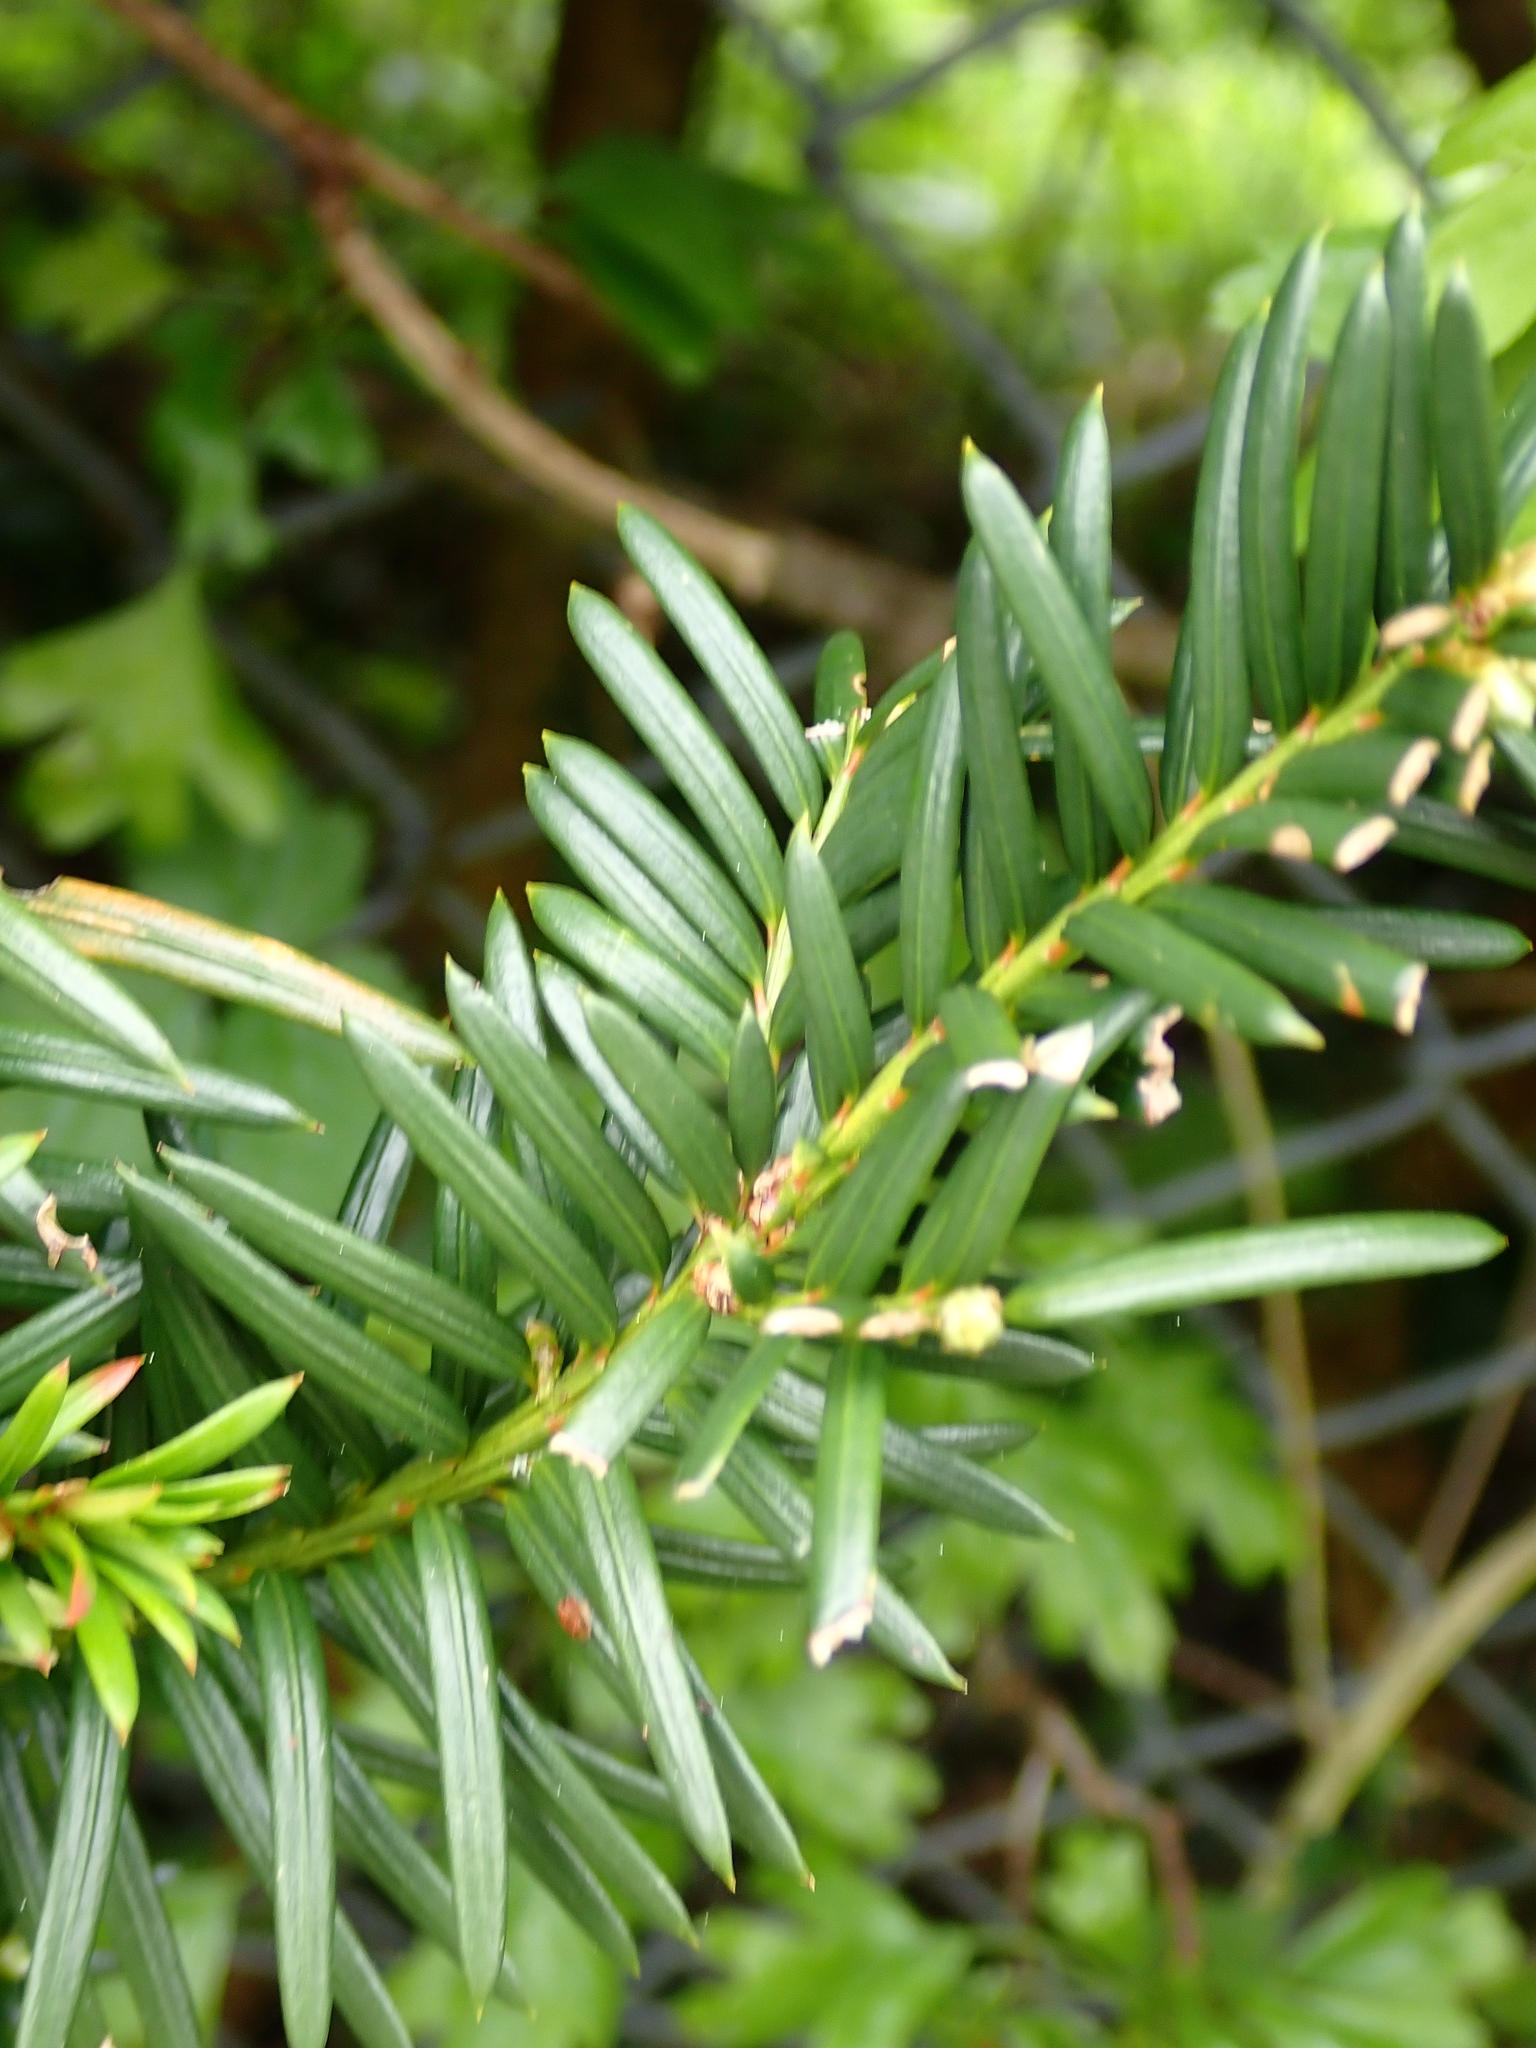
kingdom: Plantae
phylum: Tracheophyta
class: Pinopsida
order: Pinales
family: Taxaceae
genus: Taxus
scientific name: Taxus baccata
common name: Yew
